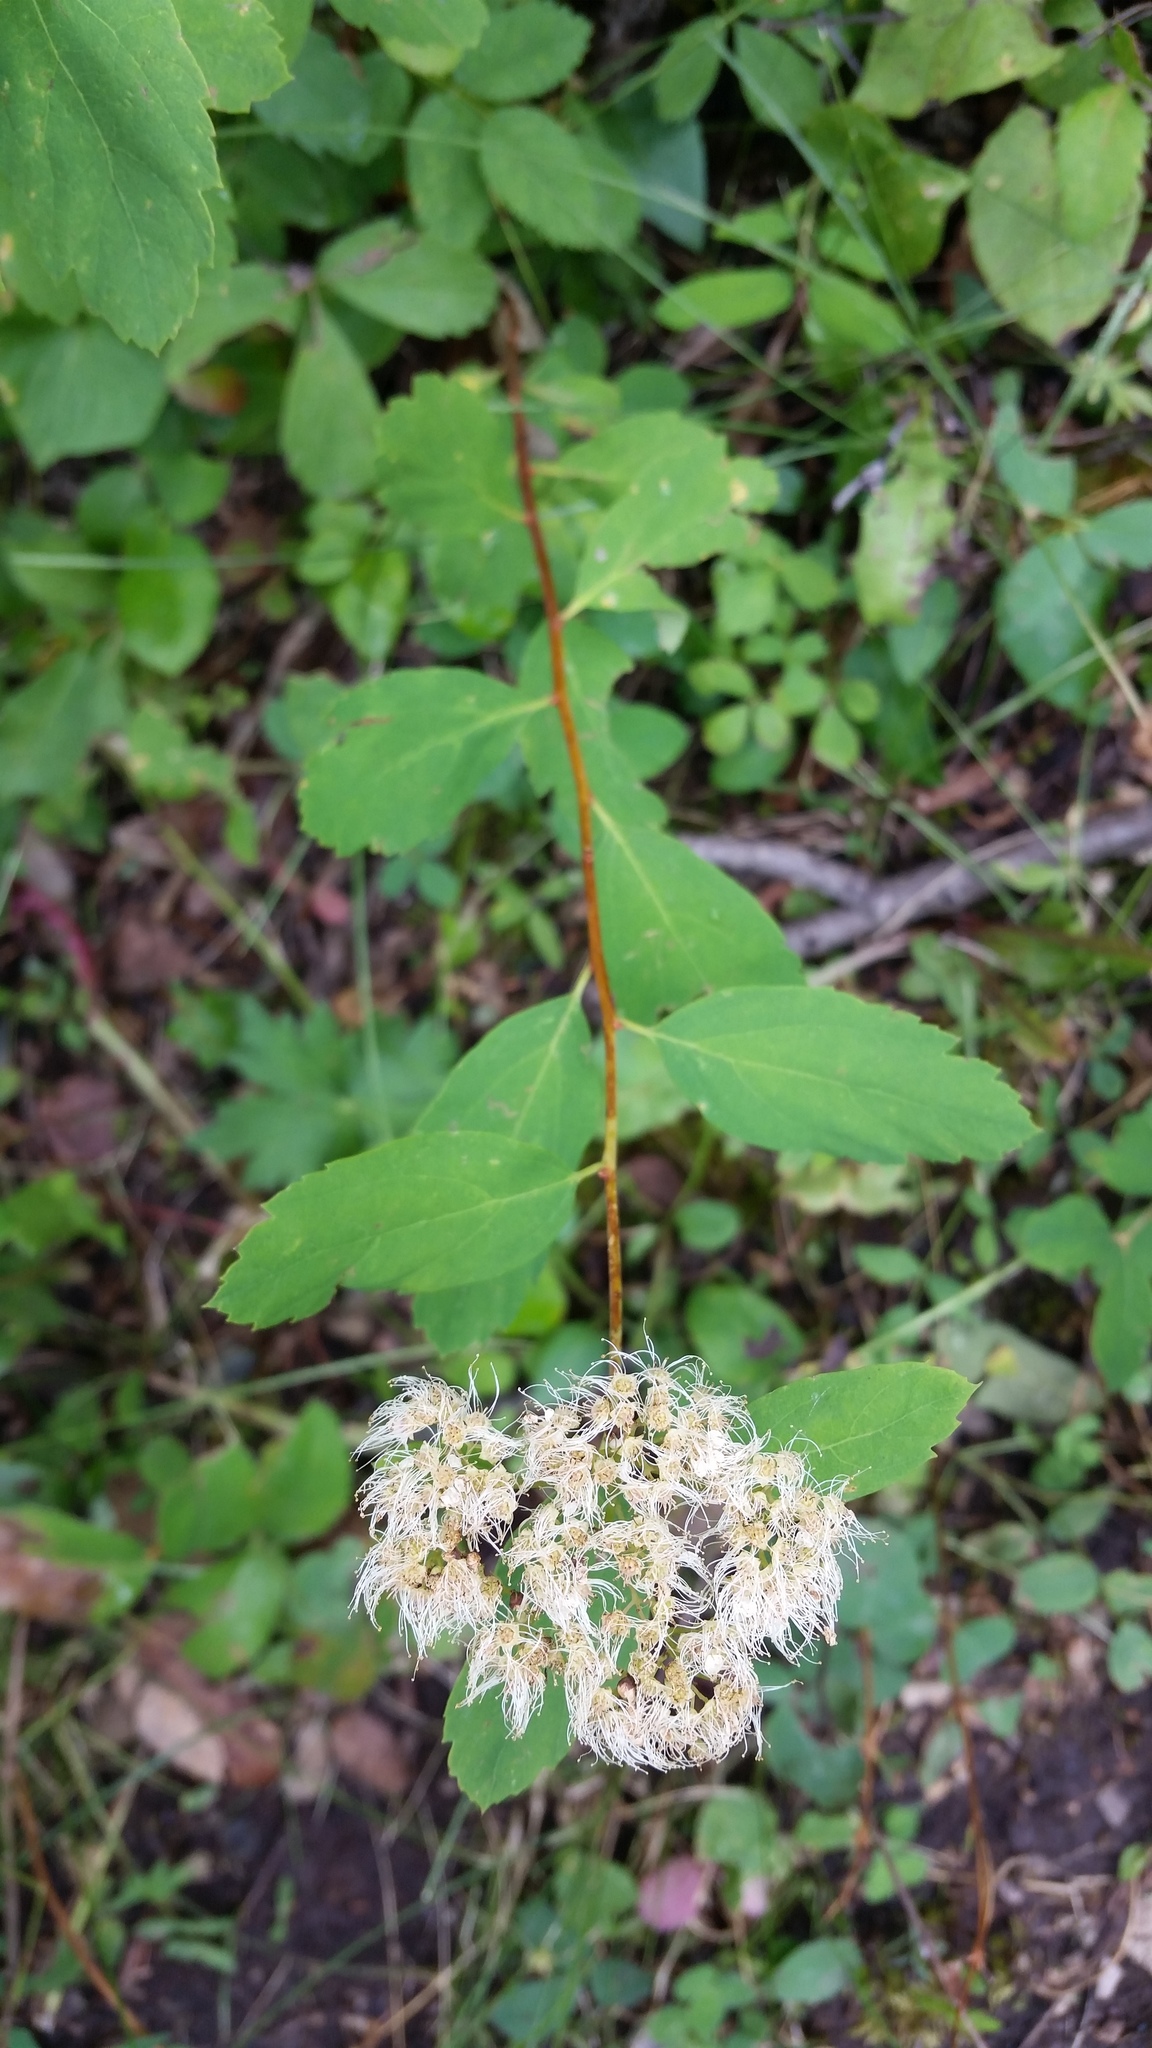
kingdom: Plantae
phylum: Tracheophyta
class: Magnoliopsida
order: Rosales
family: Rosaceae
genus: Spiraea
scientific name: Spiraea lucida
